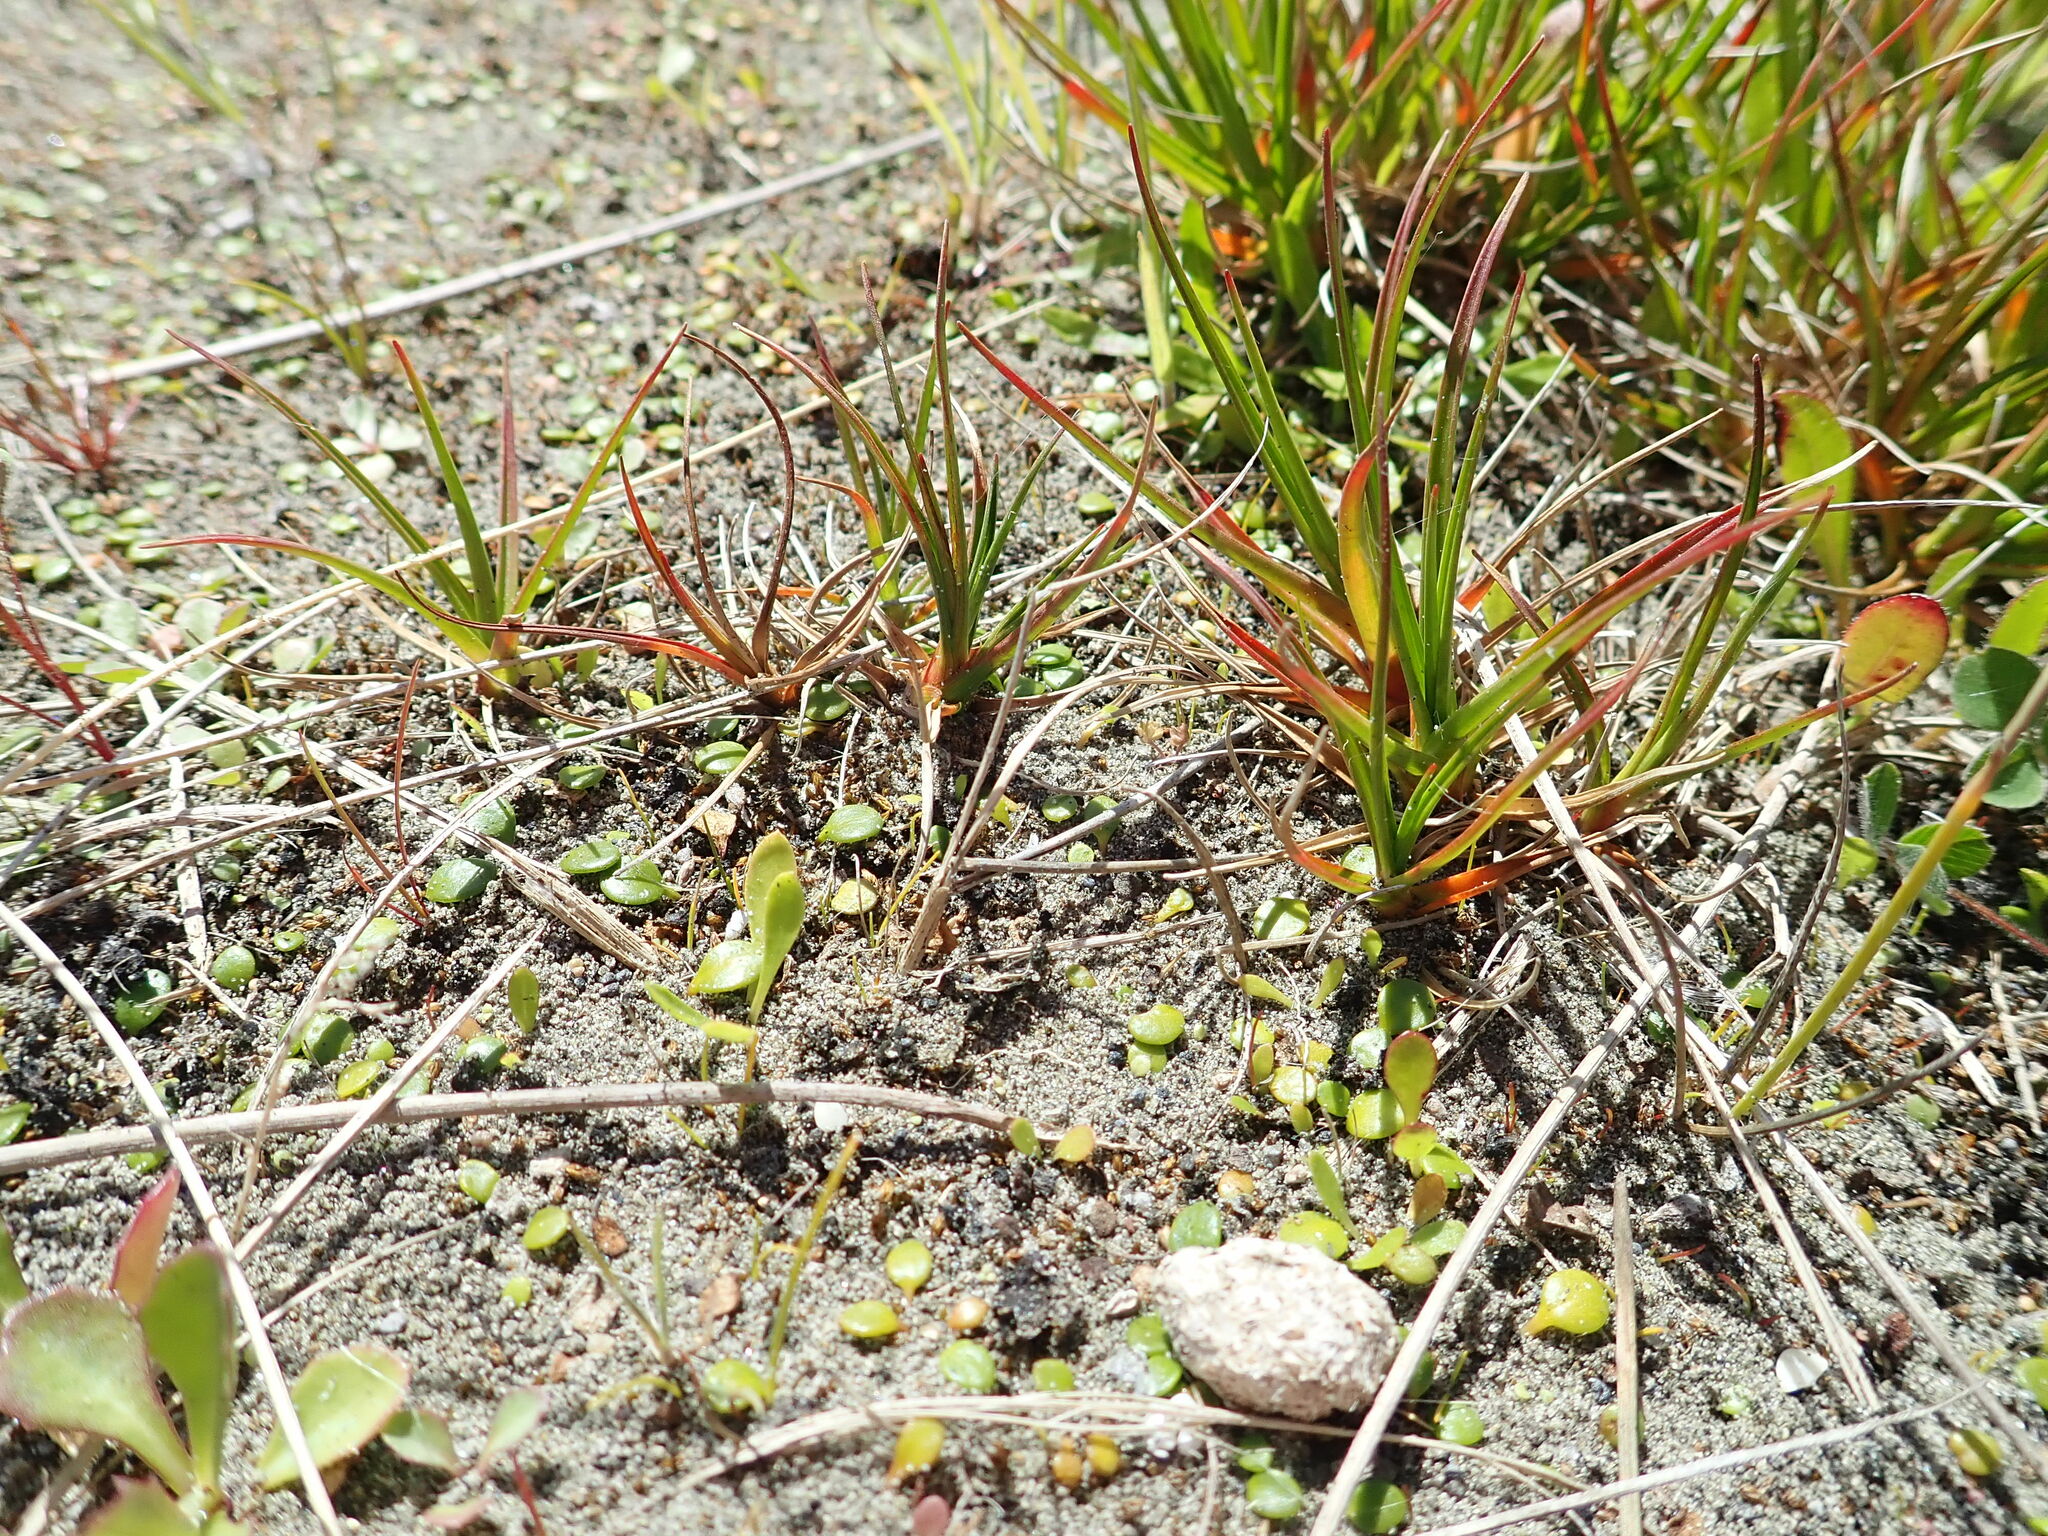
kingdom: Plantae
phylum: Tracheophyta
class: Liliopsida
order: Poales
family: Juncaceae
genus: Juncus
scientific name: Juncus caespiticius
